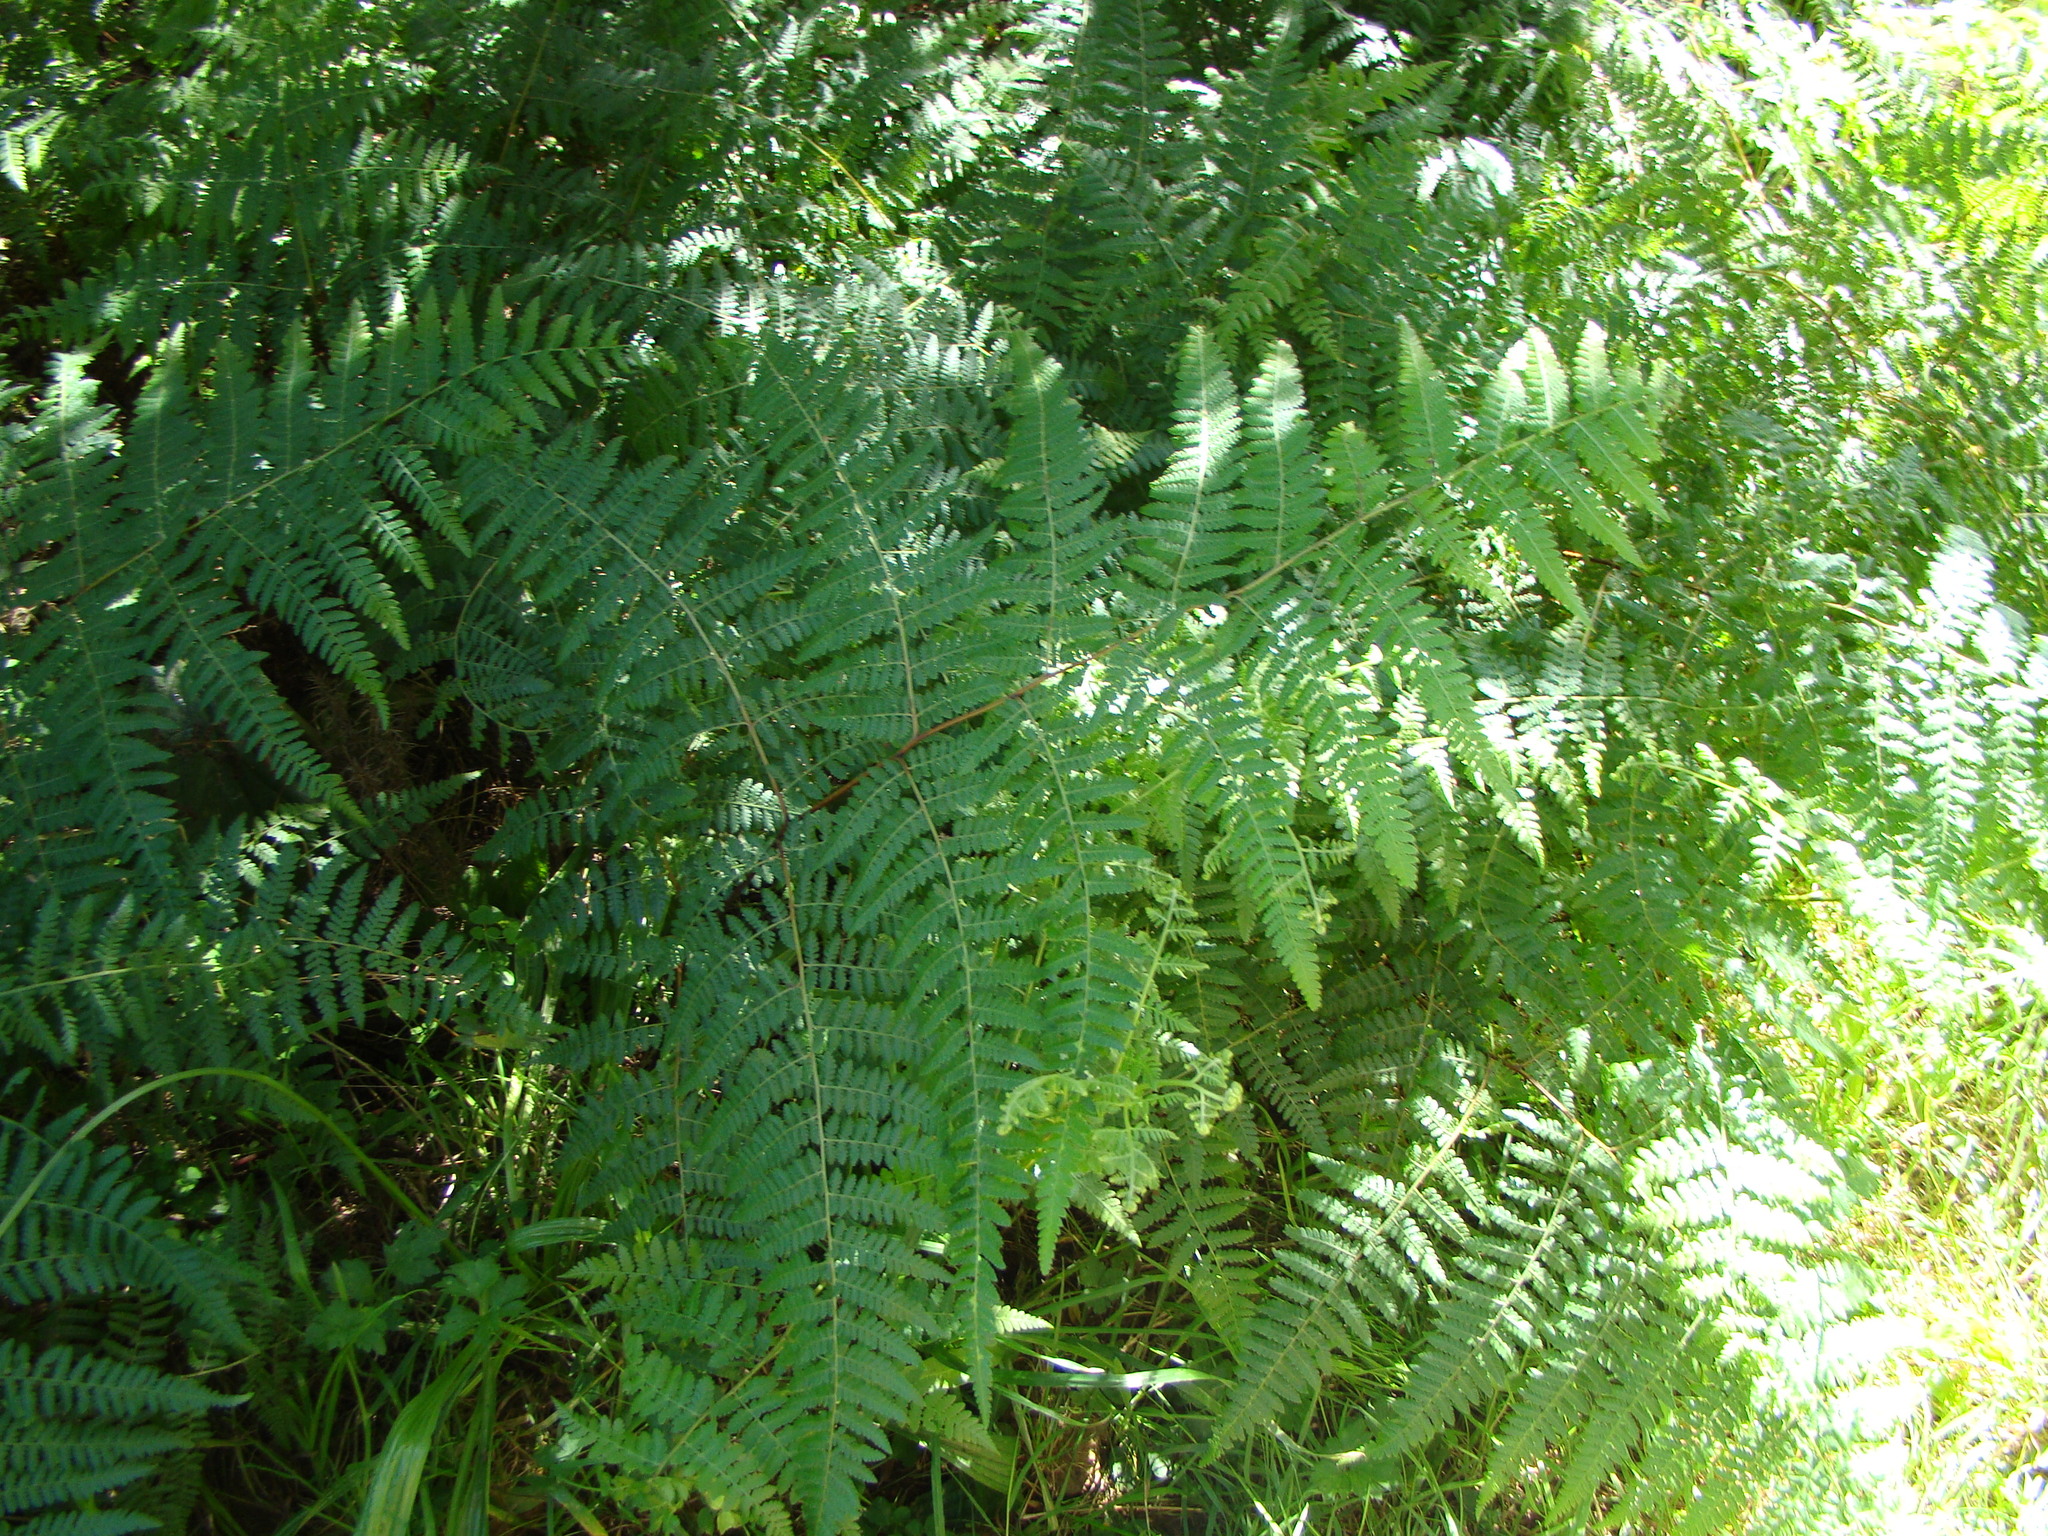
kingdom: Plantae
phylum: Tracheophyta
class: Polypodiopsida
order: Polypodiales
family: Dennstaedtiaceae
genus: Hypolepis
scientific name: Hypolepis ambigua
